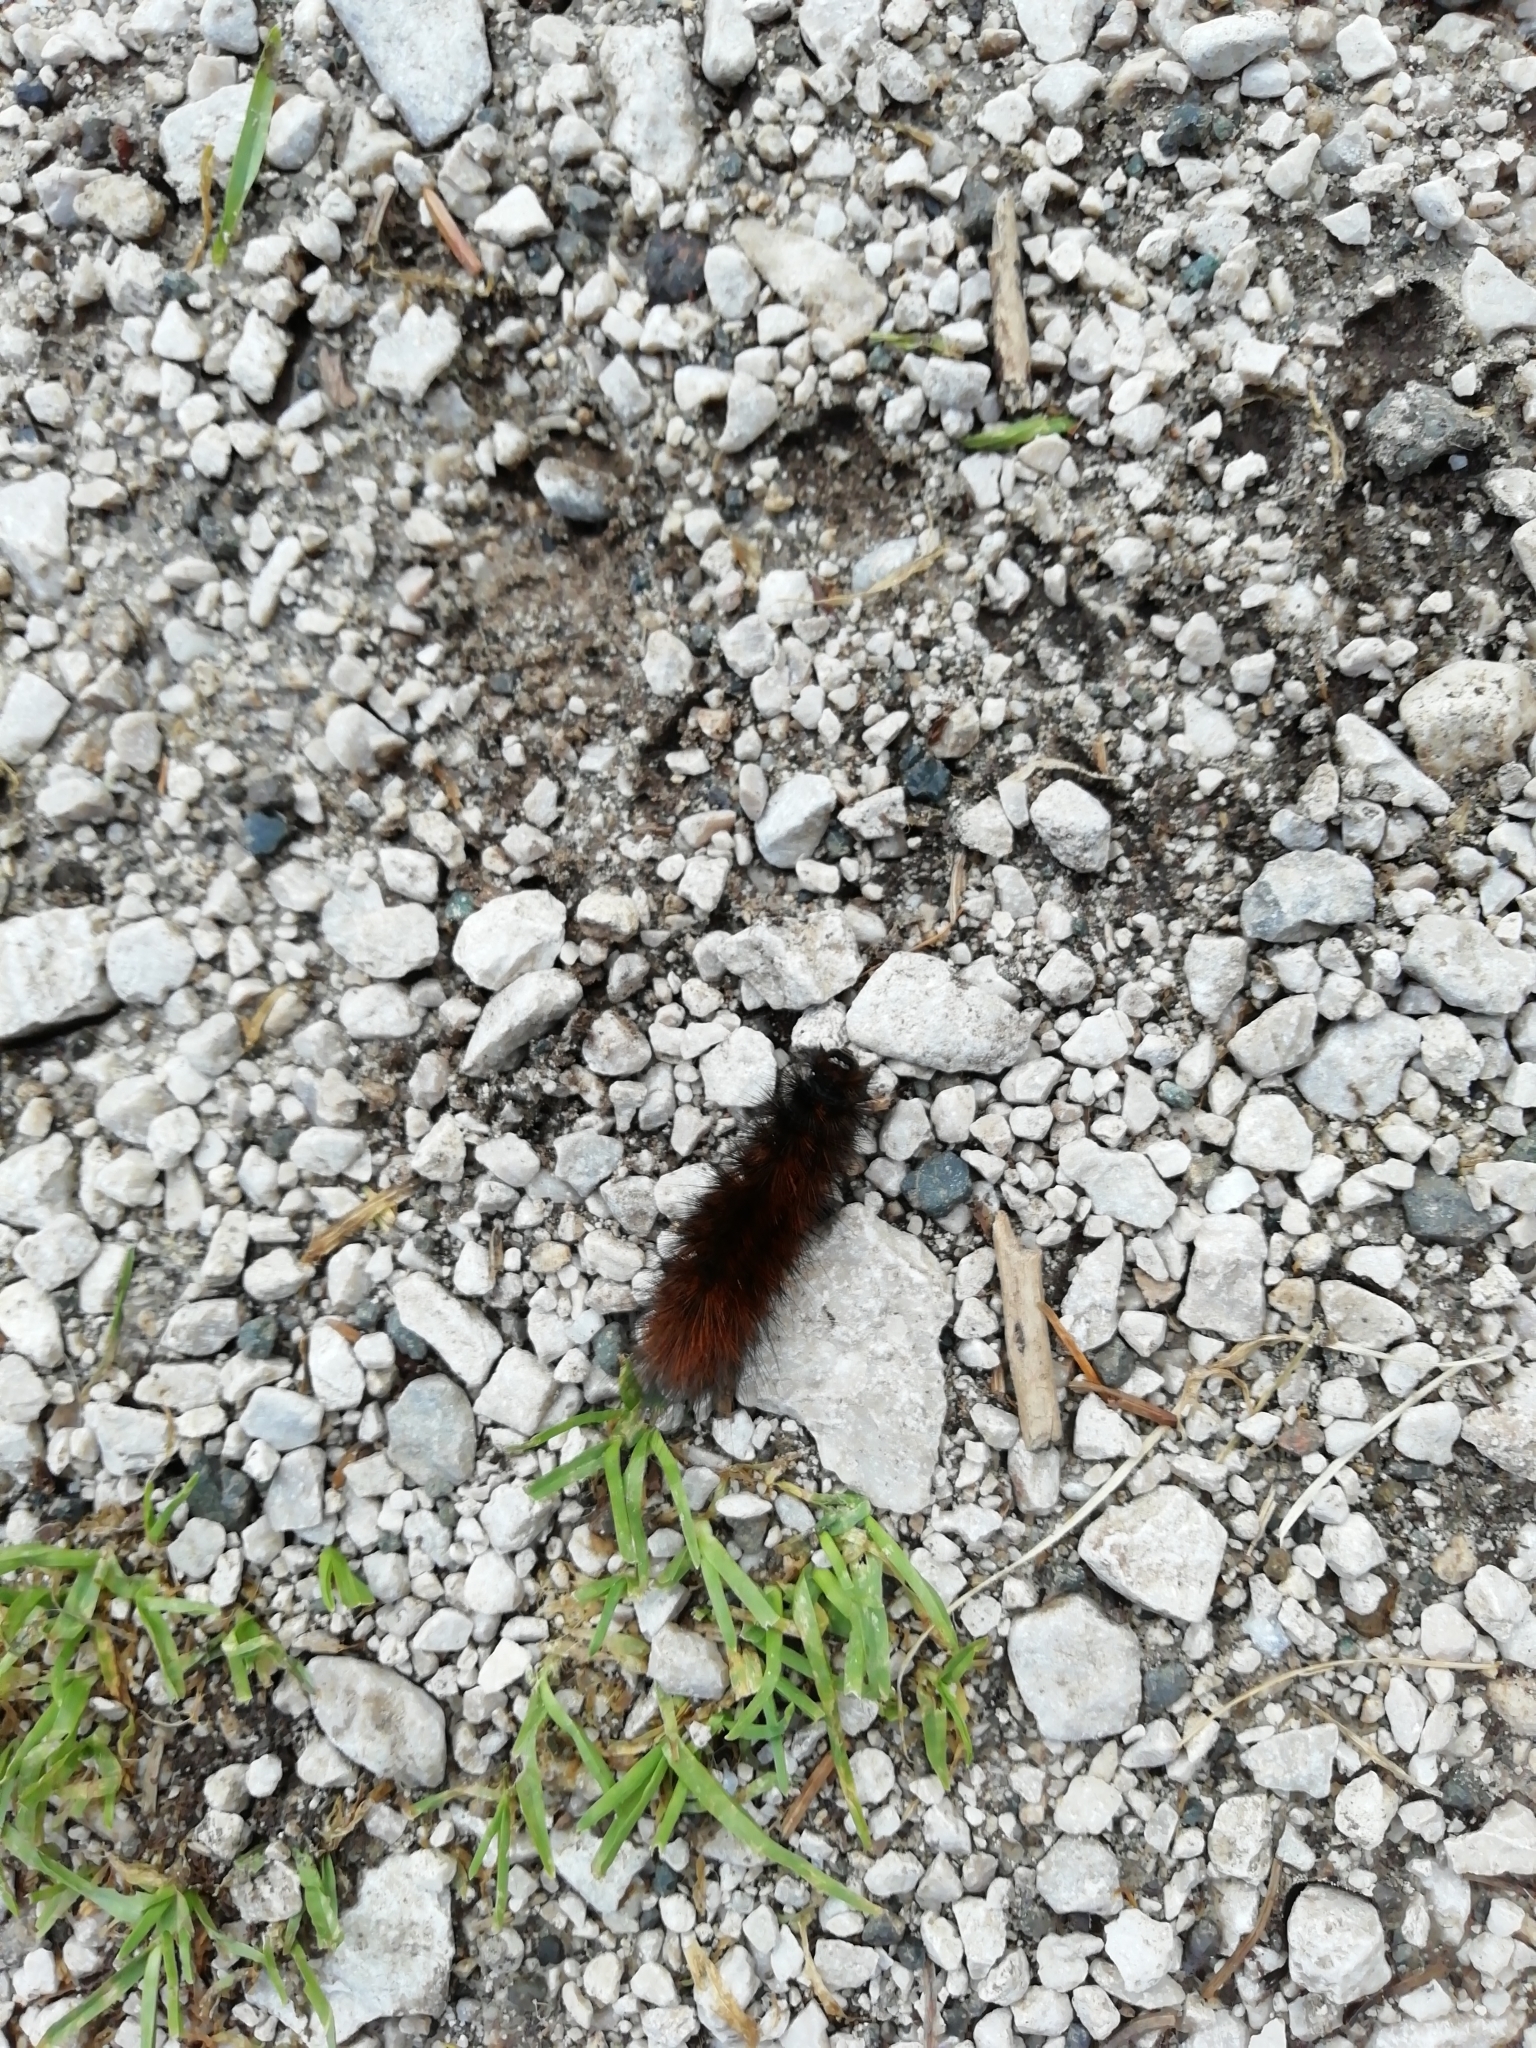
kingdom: Animalia
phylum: Arthropoda
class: Insecta
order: Lepidoptera
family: Erebidae
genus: Arctia
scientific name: Arctia caja
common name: Garden tiger
